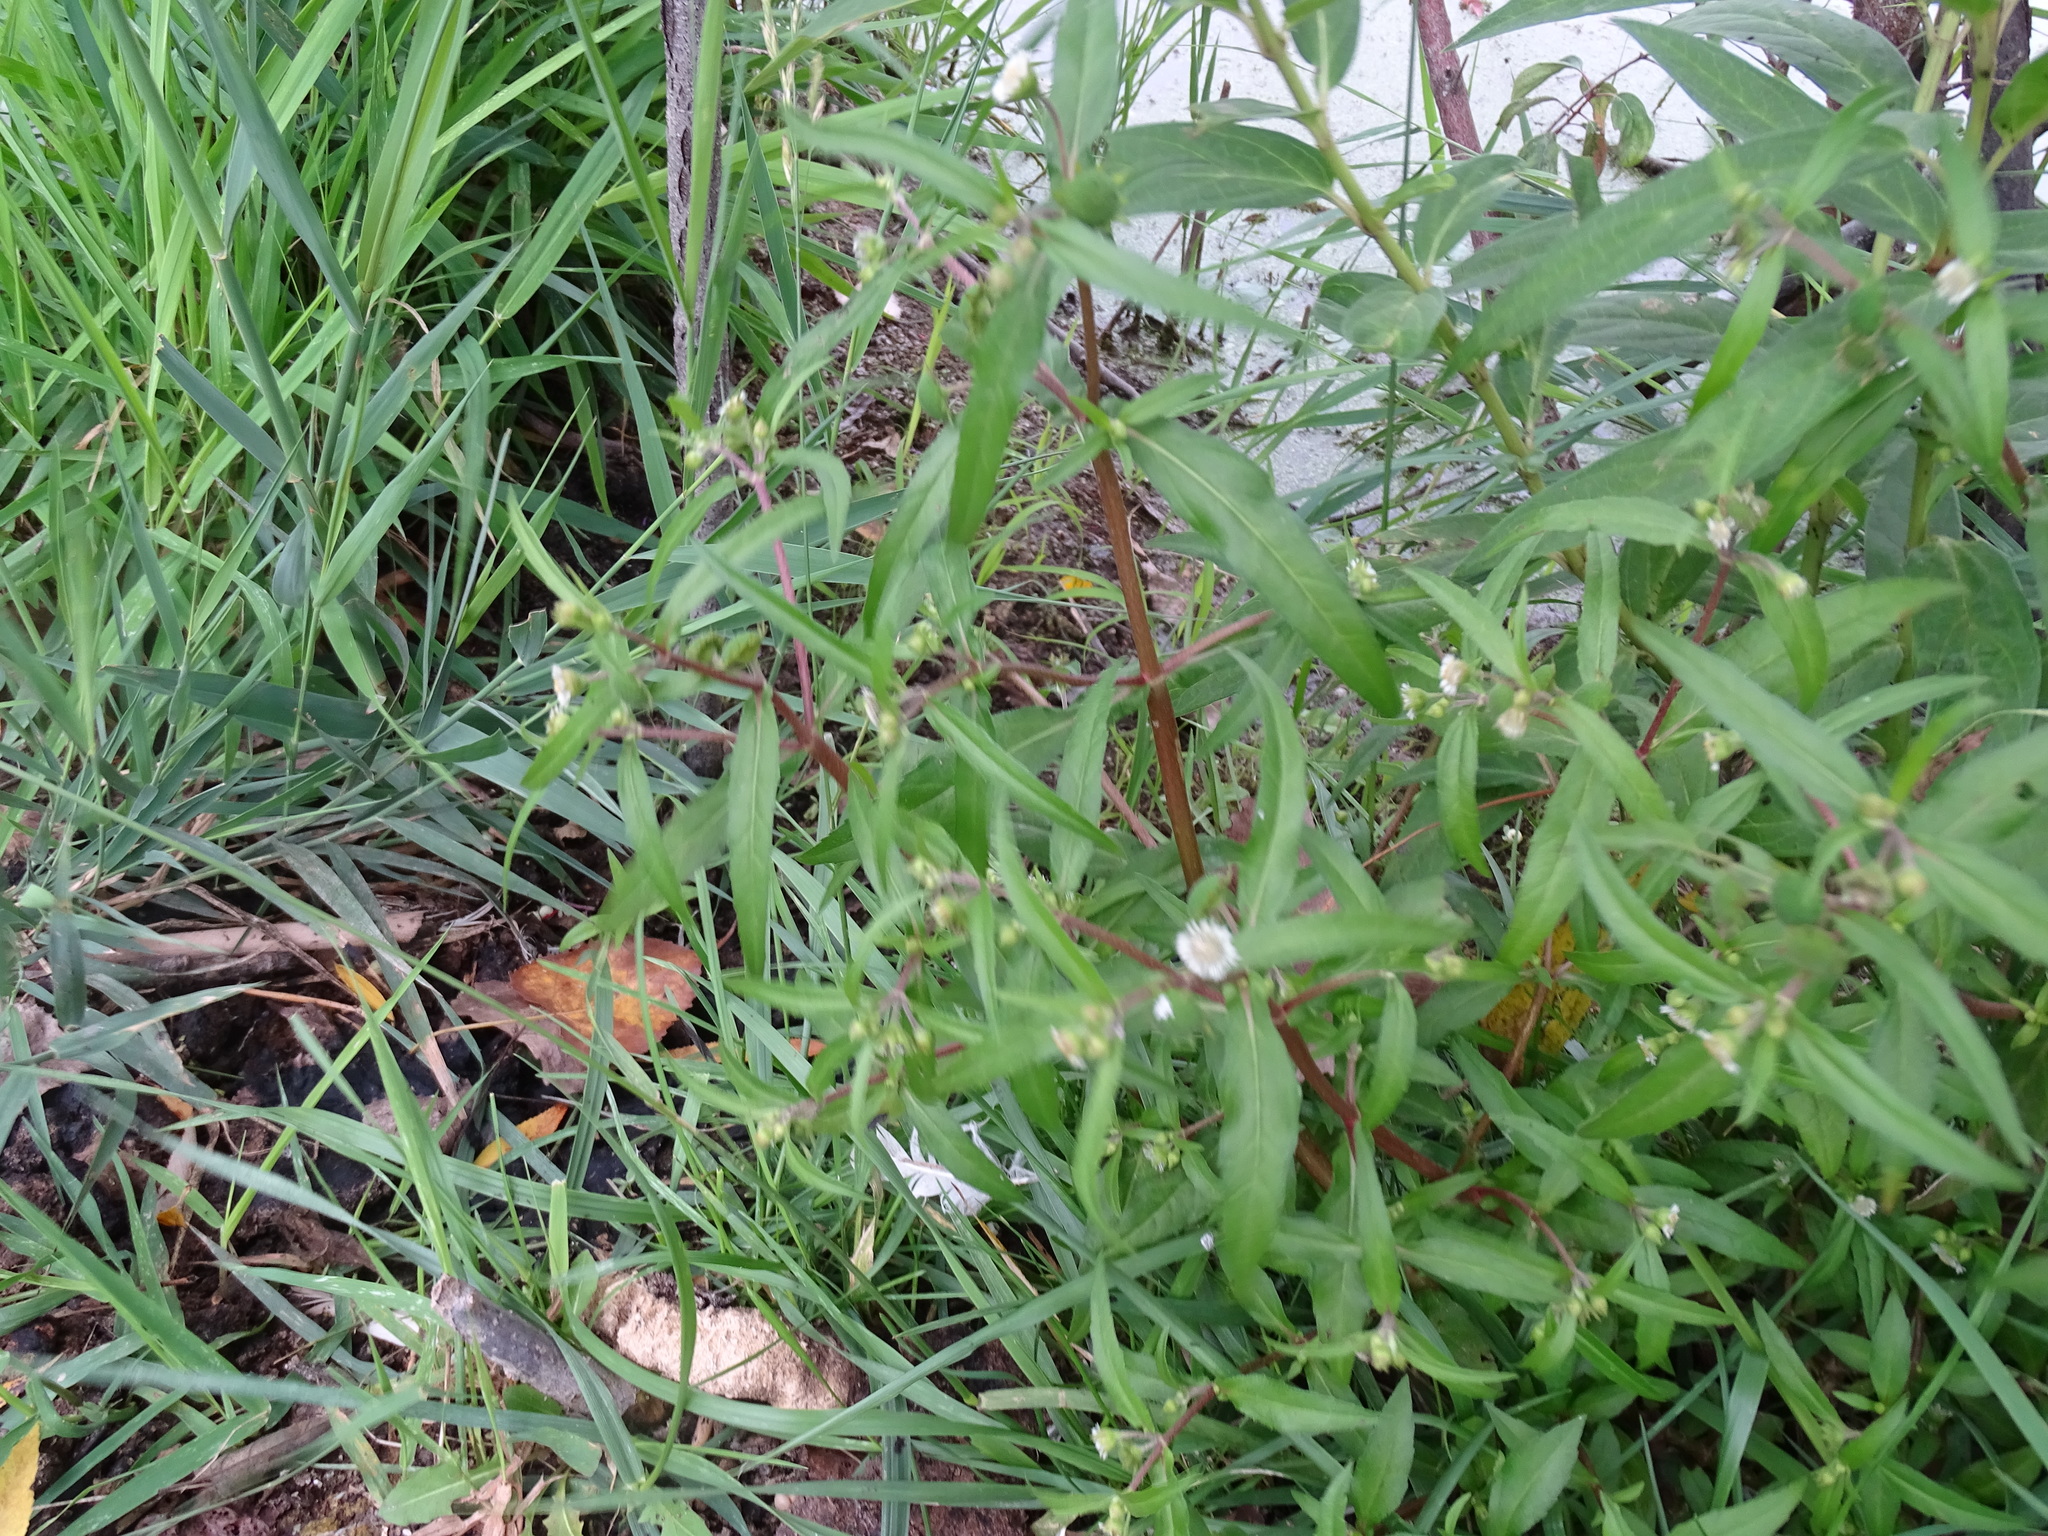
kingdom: Plantae
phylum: Tracheophyta
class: Magnoliopsida
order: Asterales
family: Asteraceae
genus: Eclipta
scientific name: Eclipta prostrata
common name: False daisy
